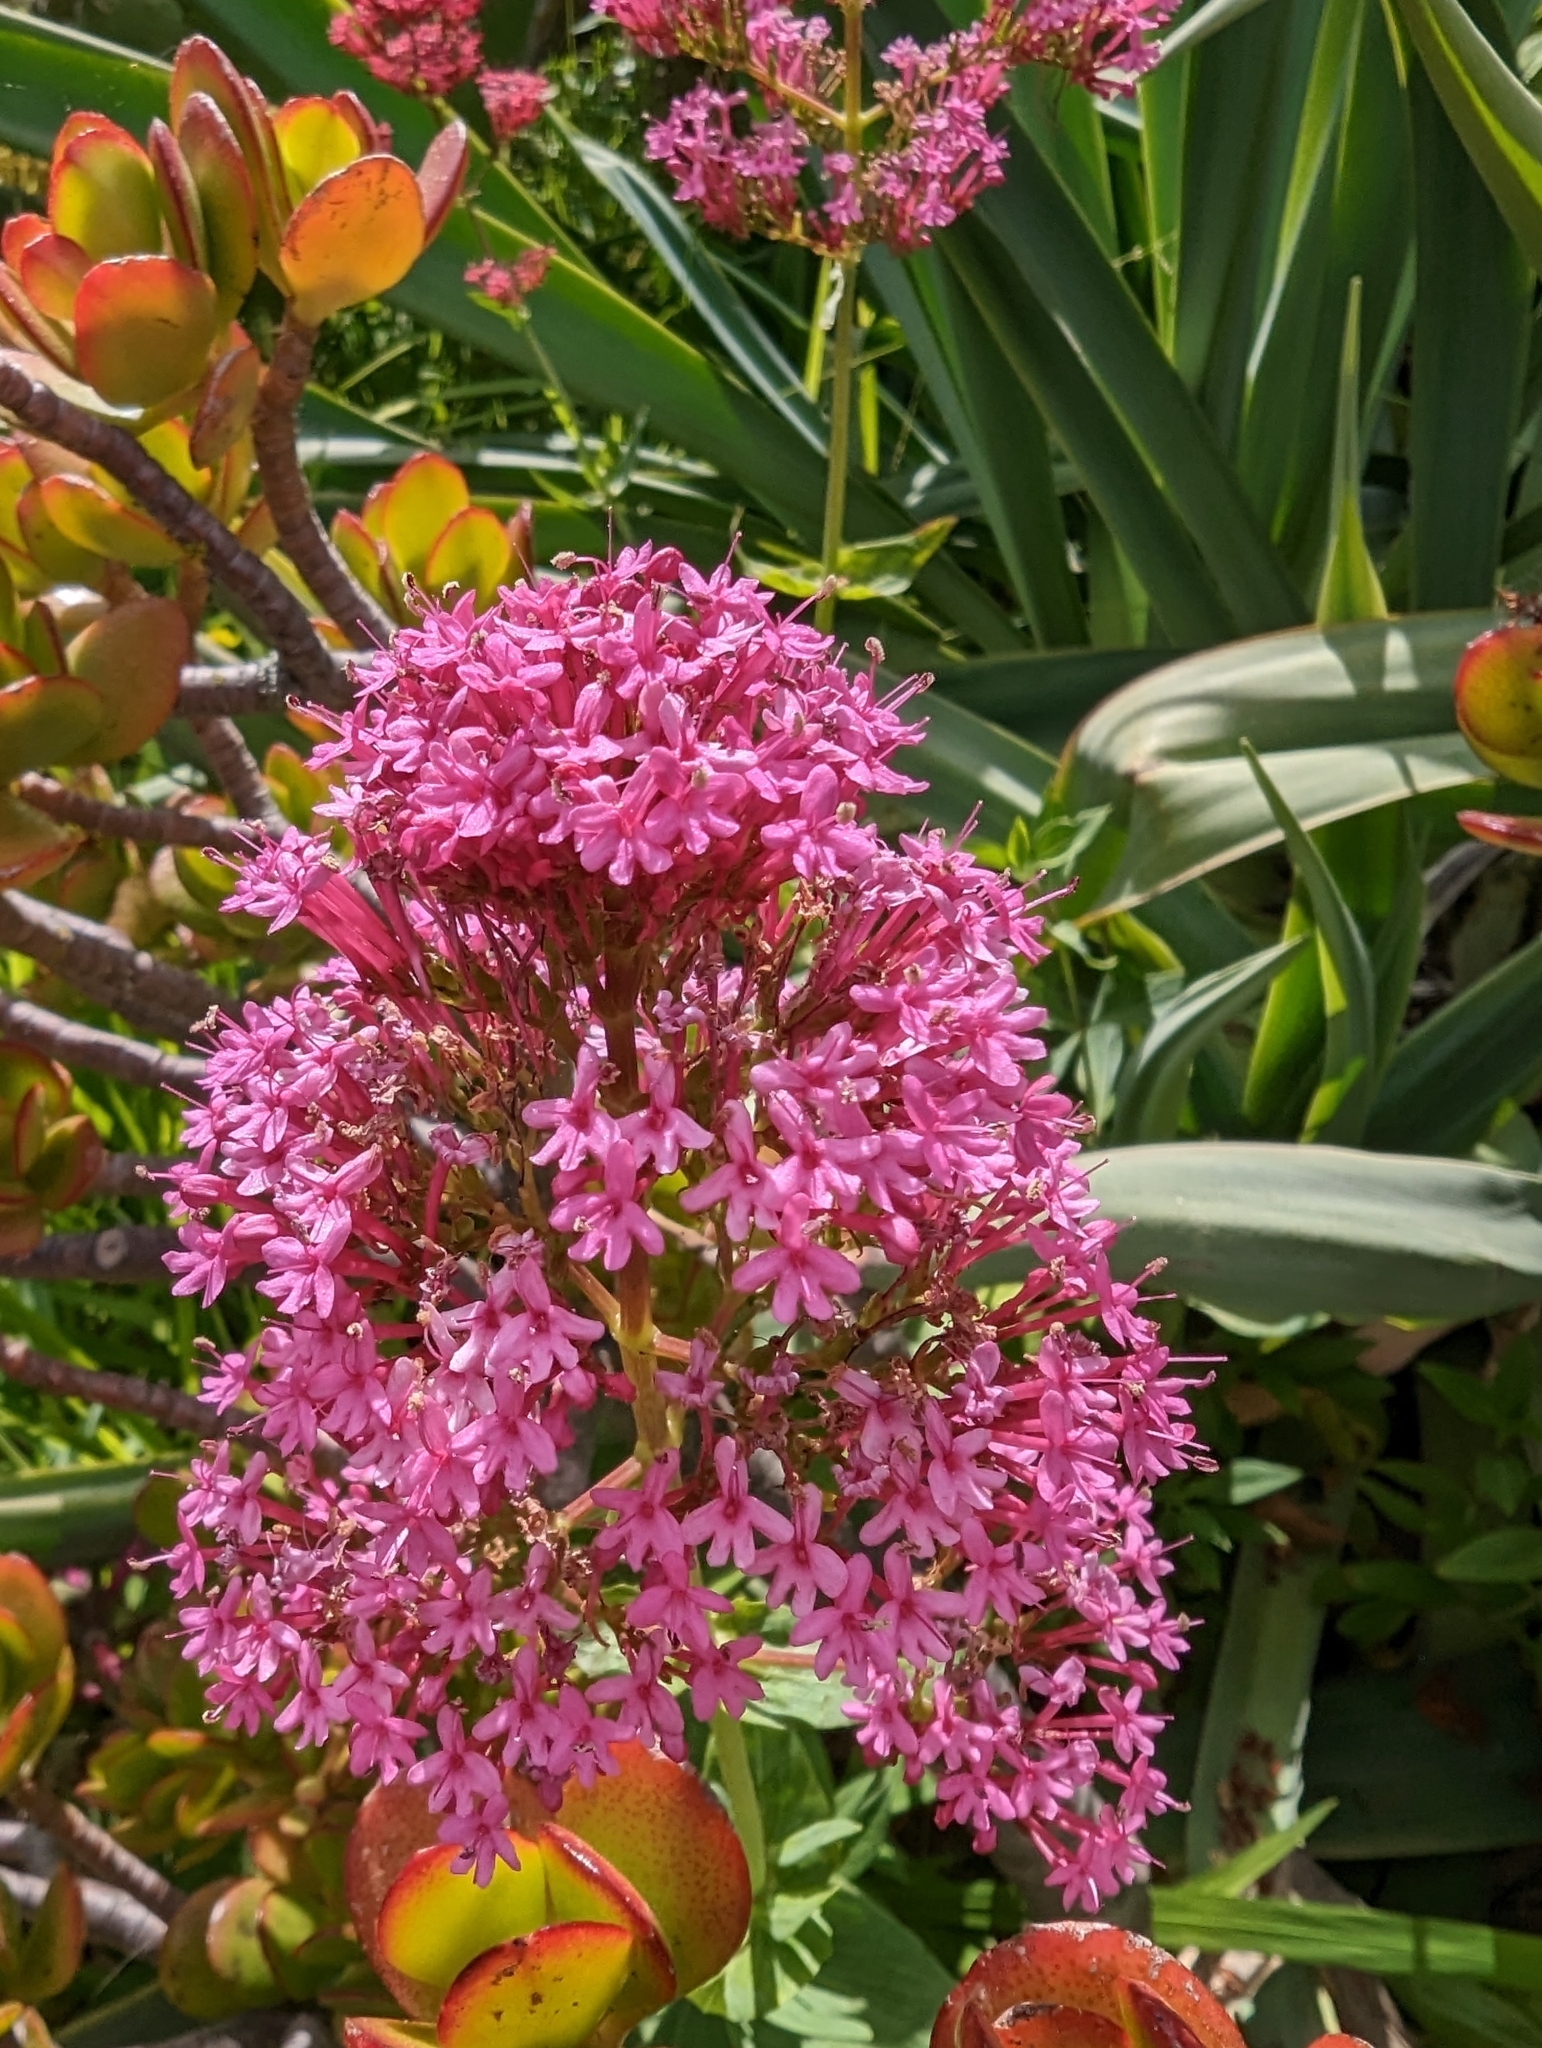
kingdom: Plantae
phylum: Tracheophyta
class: Magnoliopsida
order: Dipsacales
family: Caprifoliaceae
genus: Centranthus
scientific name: Centranthus ruber
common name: Red valerian
